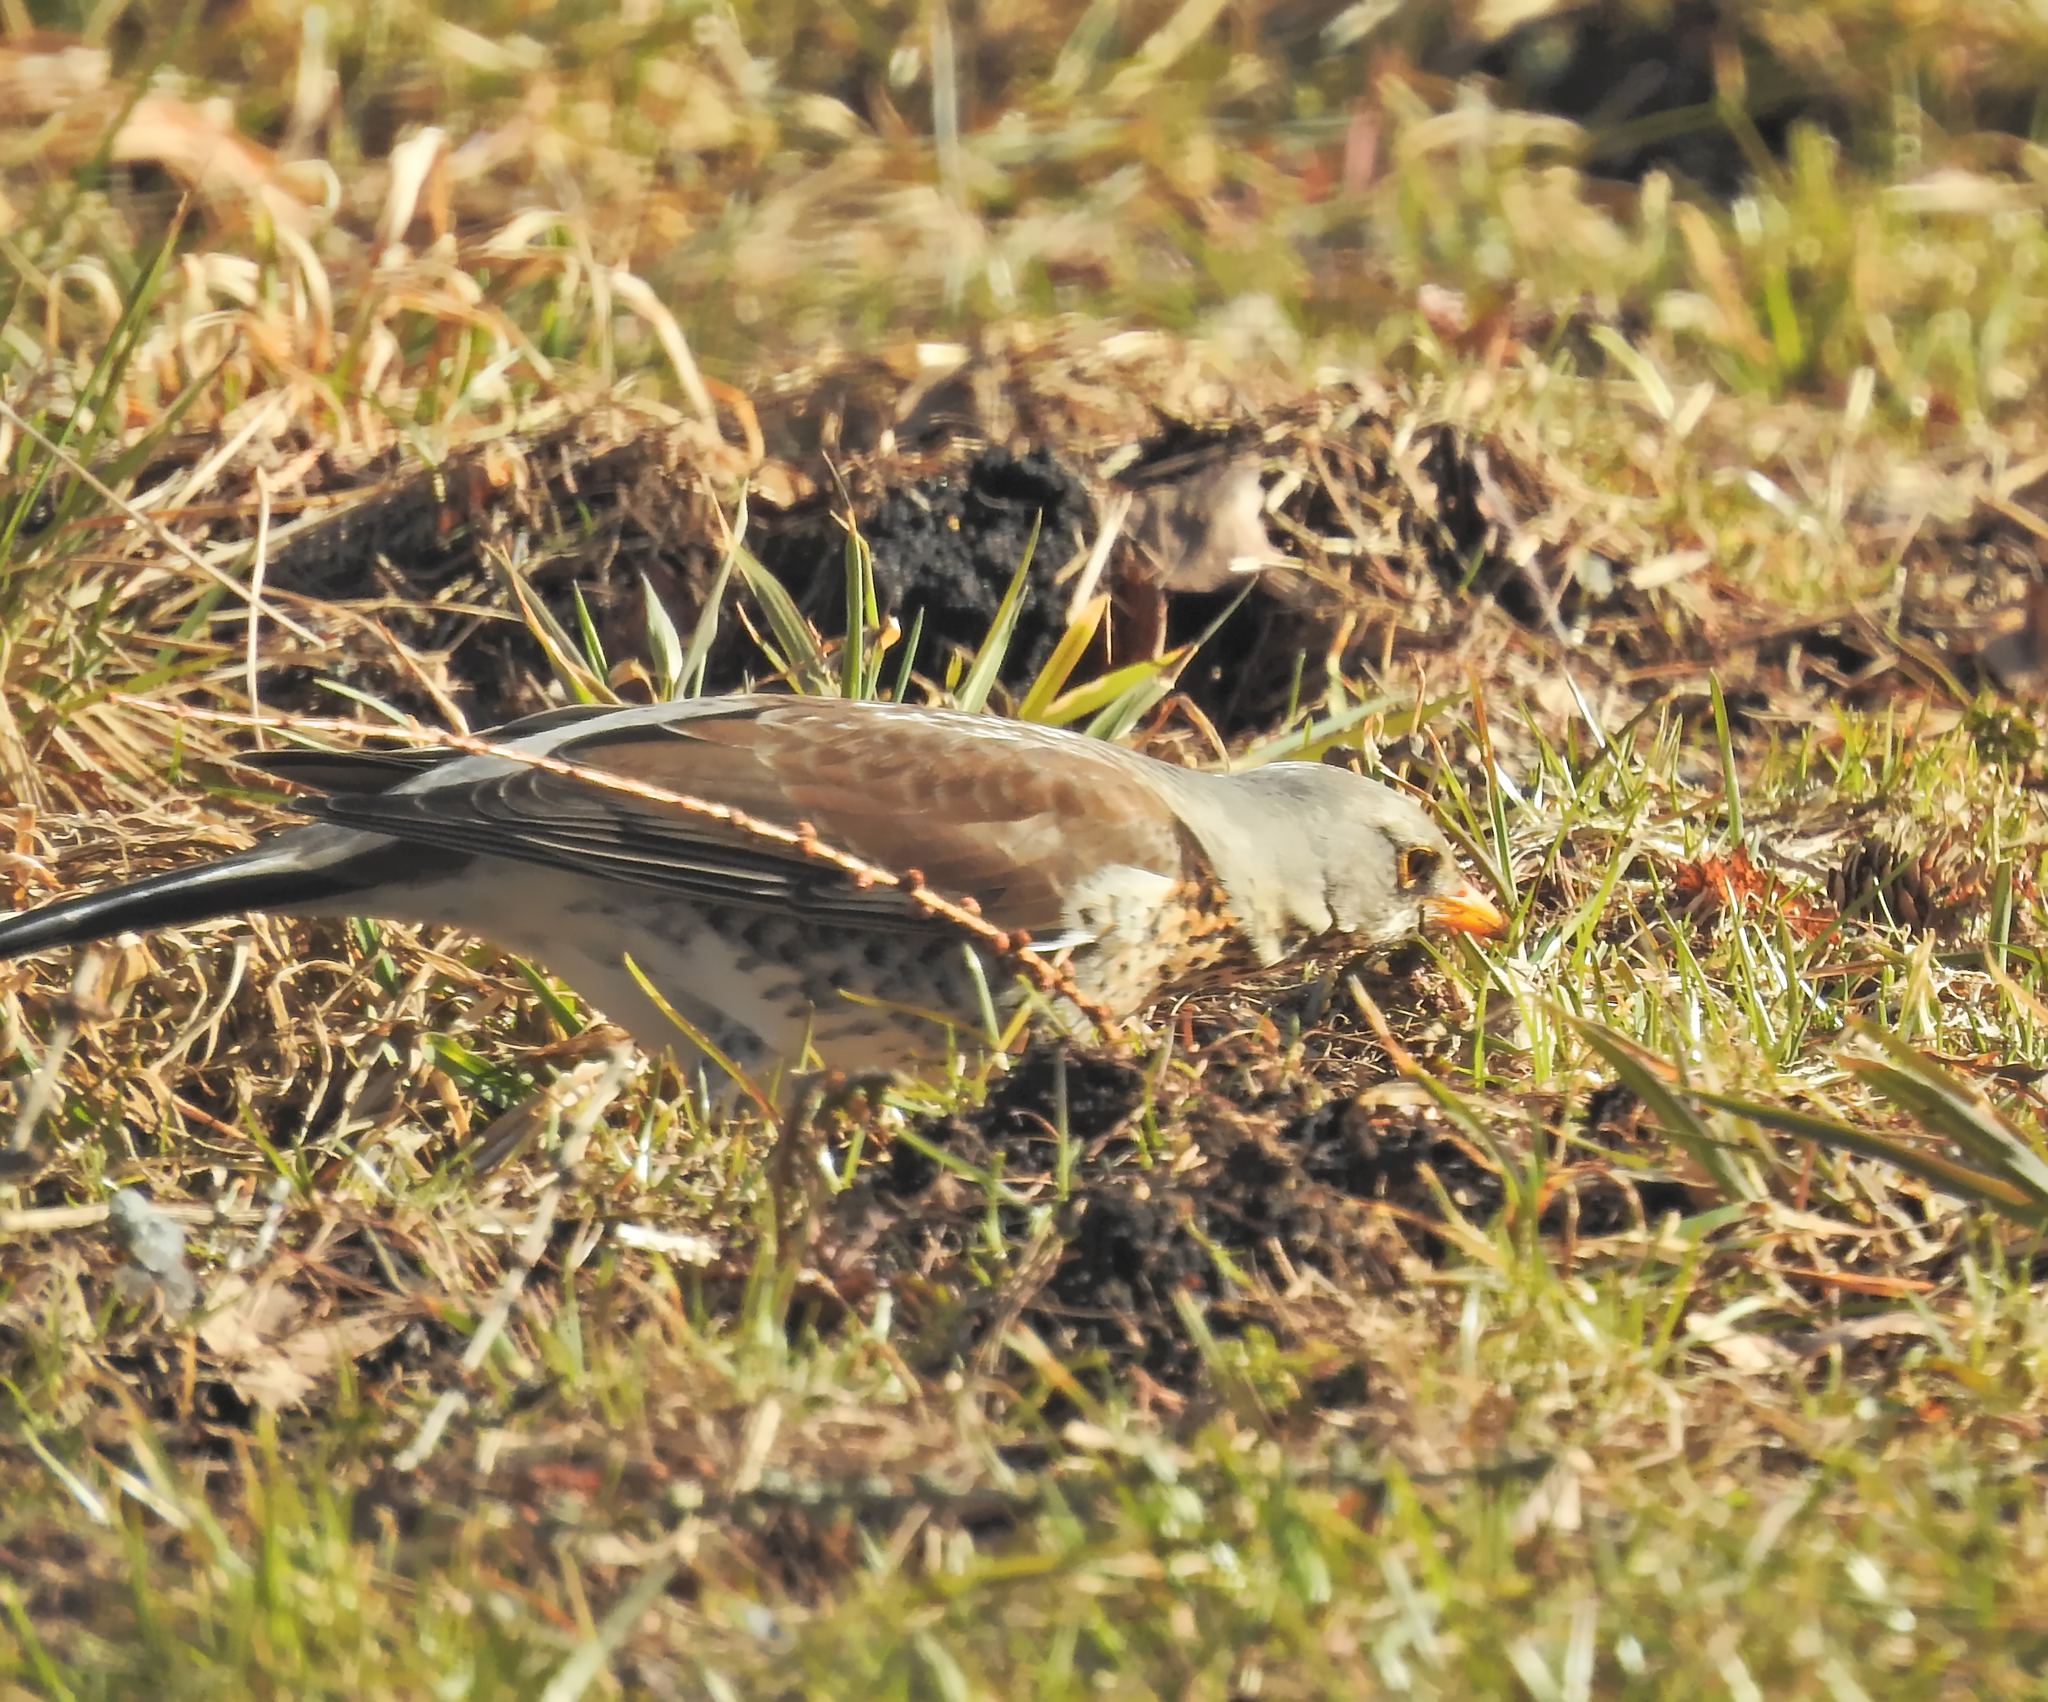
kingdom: Animalia
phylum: Chordata
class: Aves
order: Passeriformes
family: Turdidae
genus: Turdus
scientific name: Turdus pilaris
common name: Fieldfare
